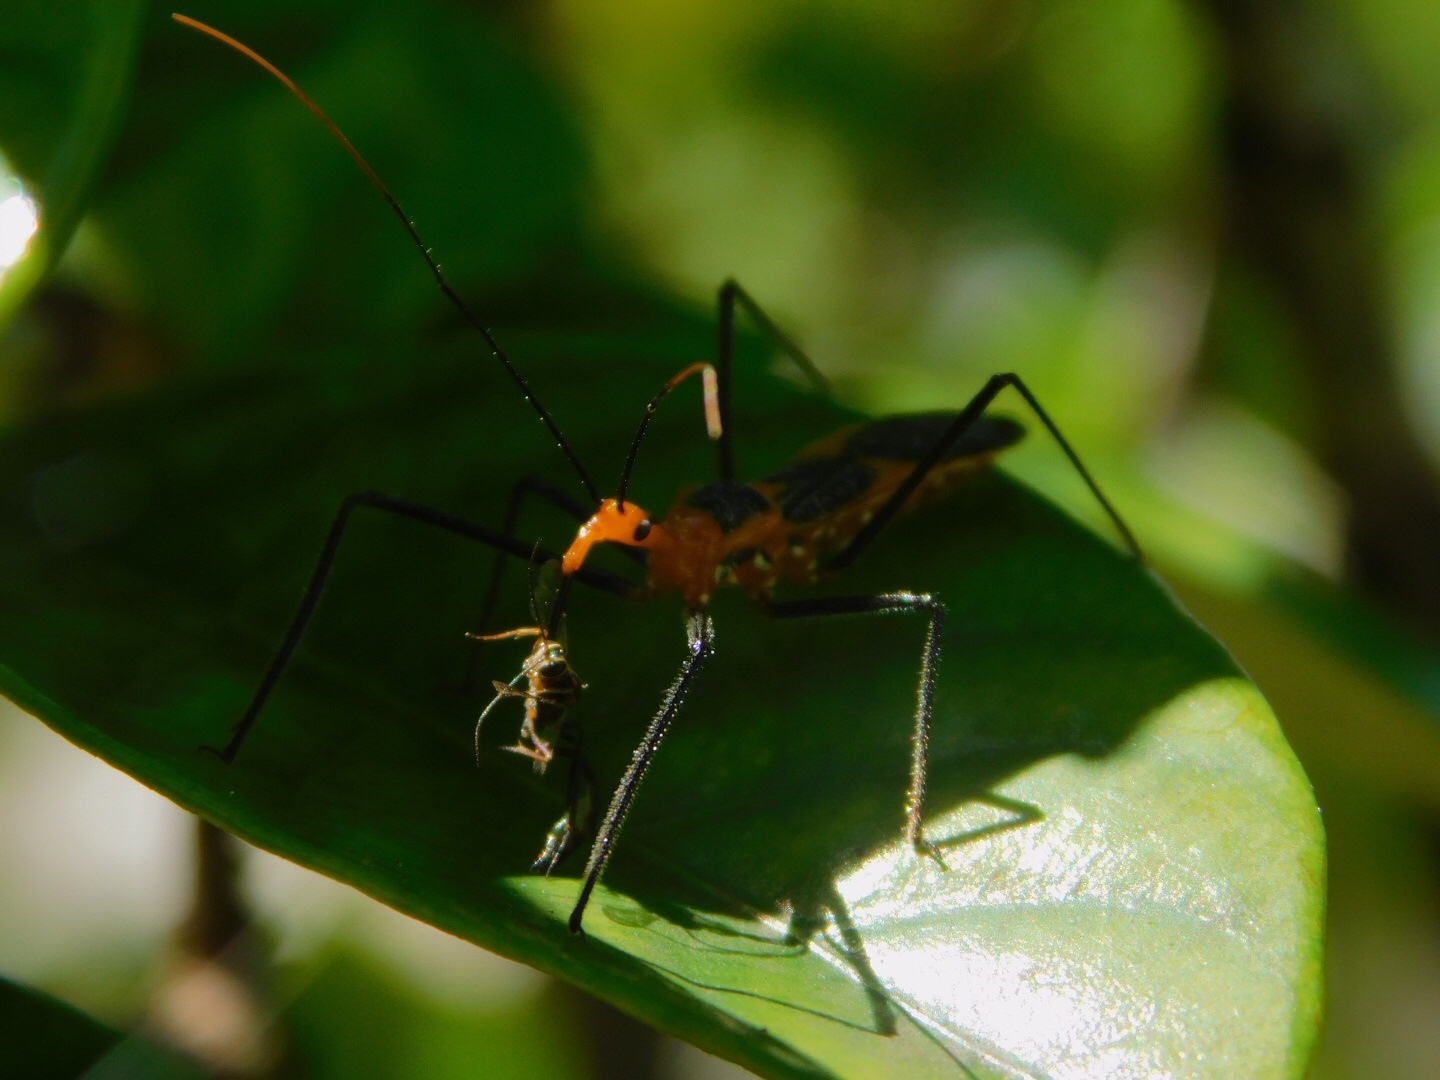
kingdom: Animalia
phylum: Arthropoda
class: Insecta
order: Hemiptera
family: Reduviidae
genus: Zelus
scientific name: Zelus longipes
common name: Milkweed assassin bug
